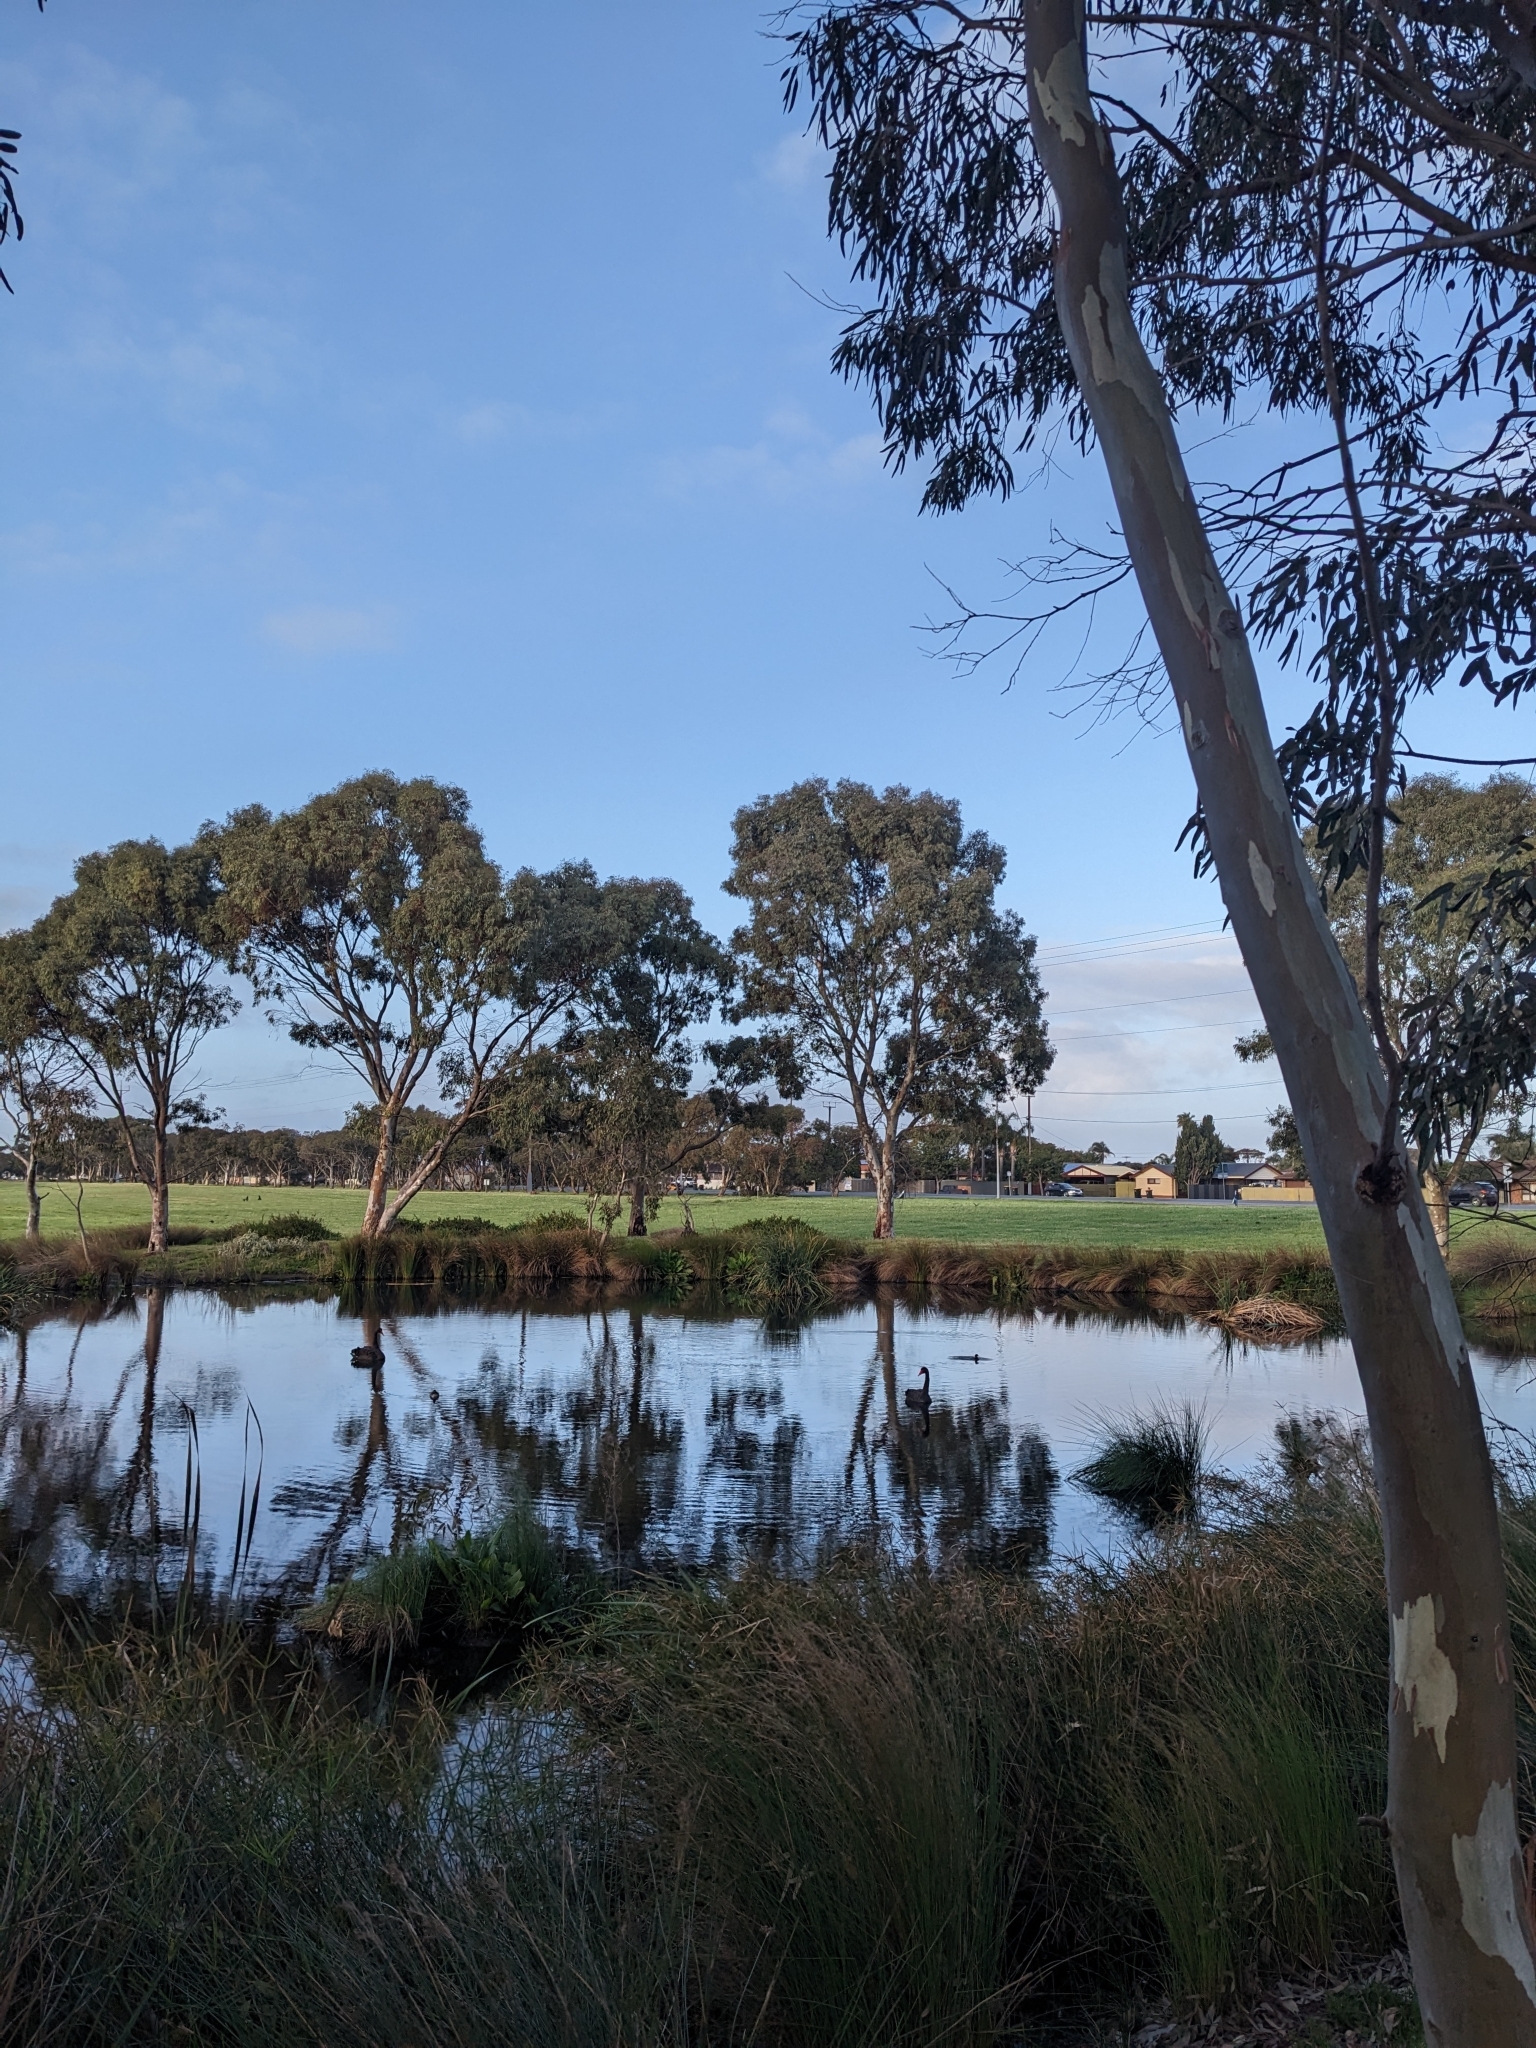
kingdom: Animalia
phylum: Chordata
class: Aves
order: Anseriformes
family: Anatidae
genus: Cygnus
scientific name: Cygnus atratus
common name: Black swan
